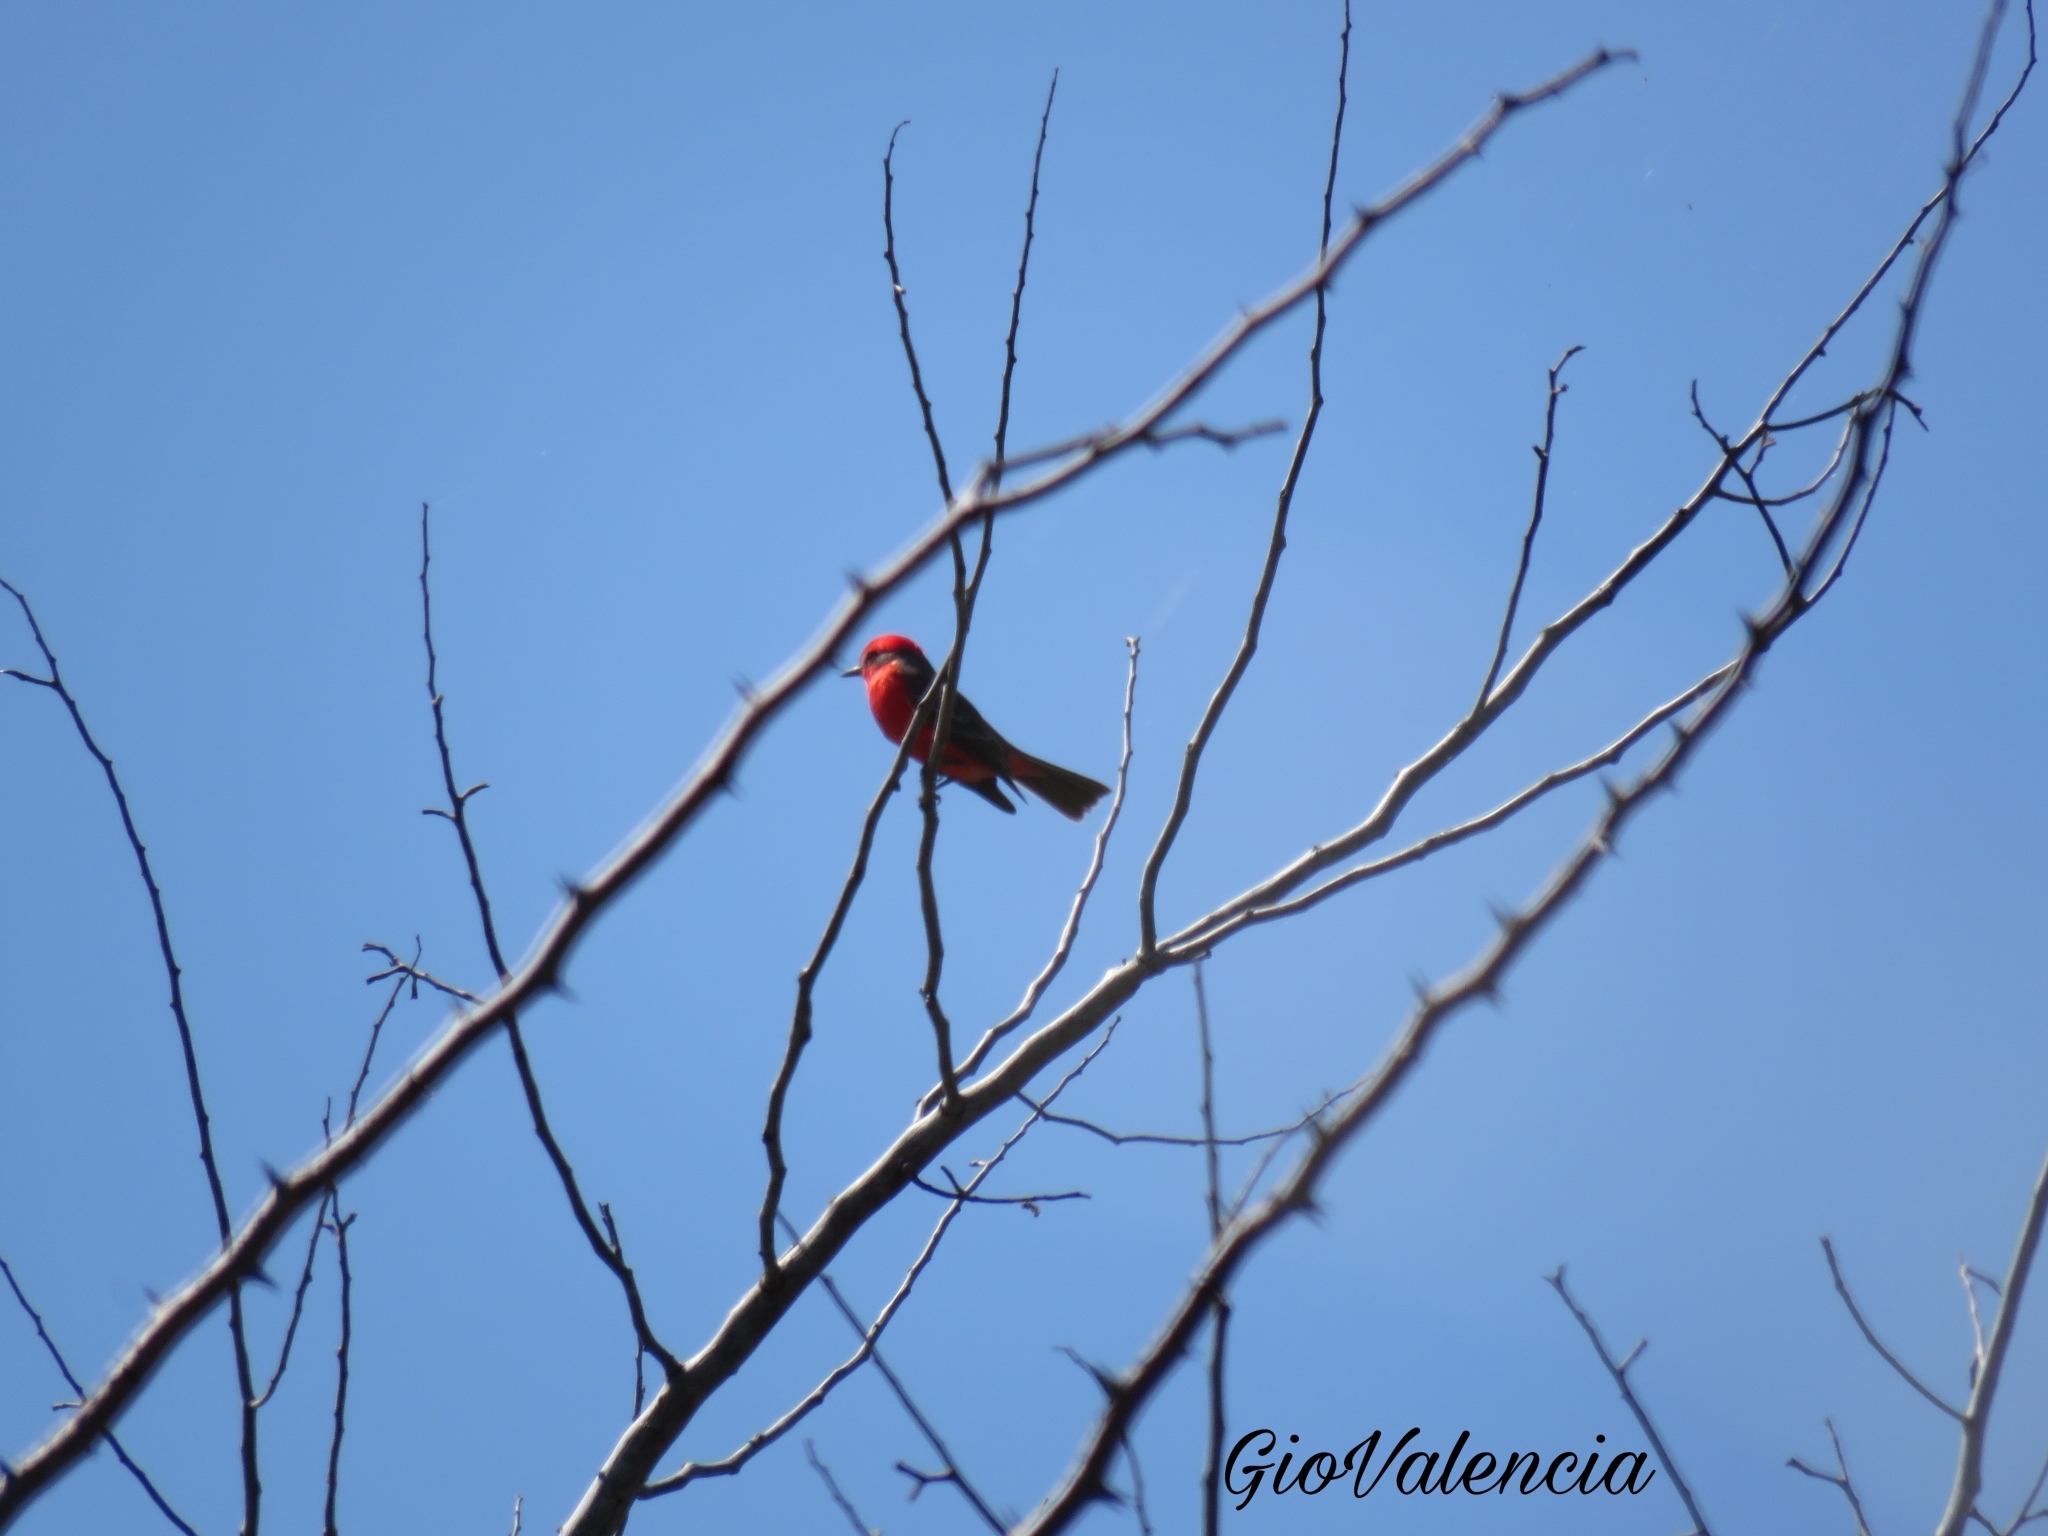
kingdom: Animalia
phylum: Chordata
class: Aves
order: Passeriformes
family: Tyrannidae
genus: Pyrocephalus
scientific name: Pyrocephalus rubinus
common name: Vermilion flycatcher
